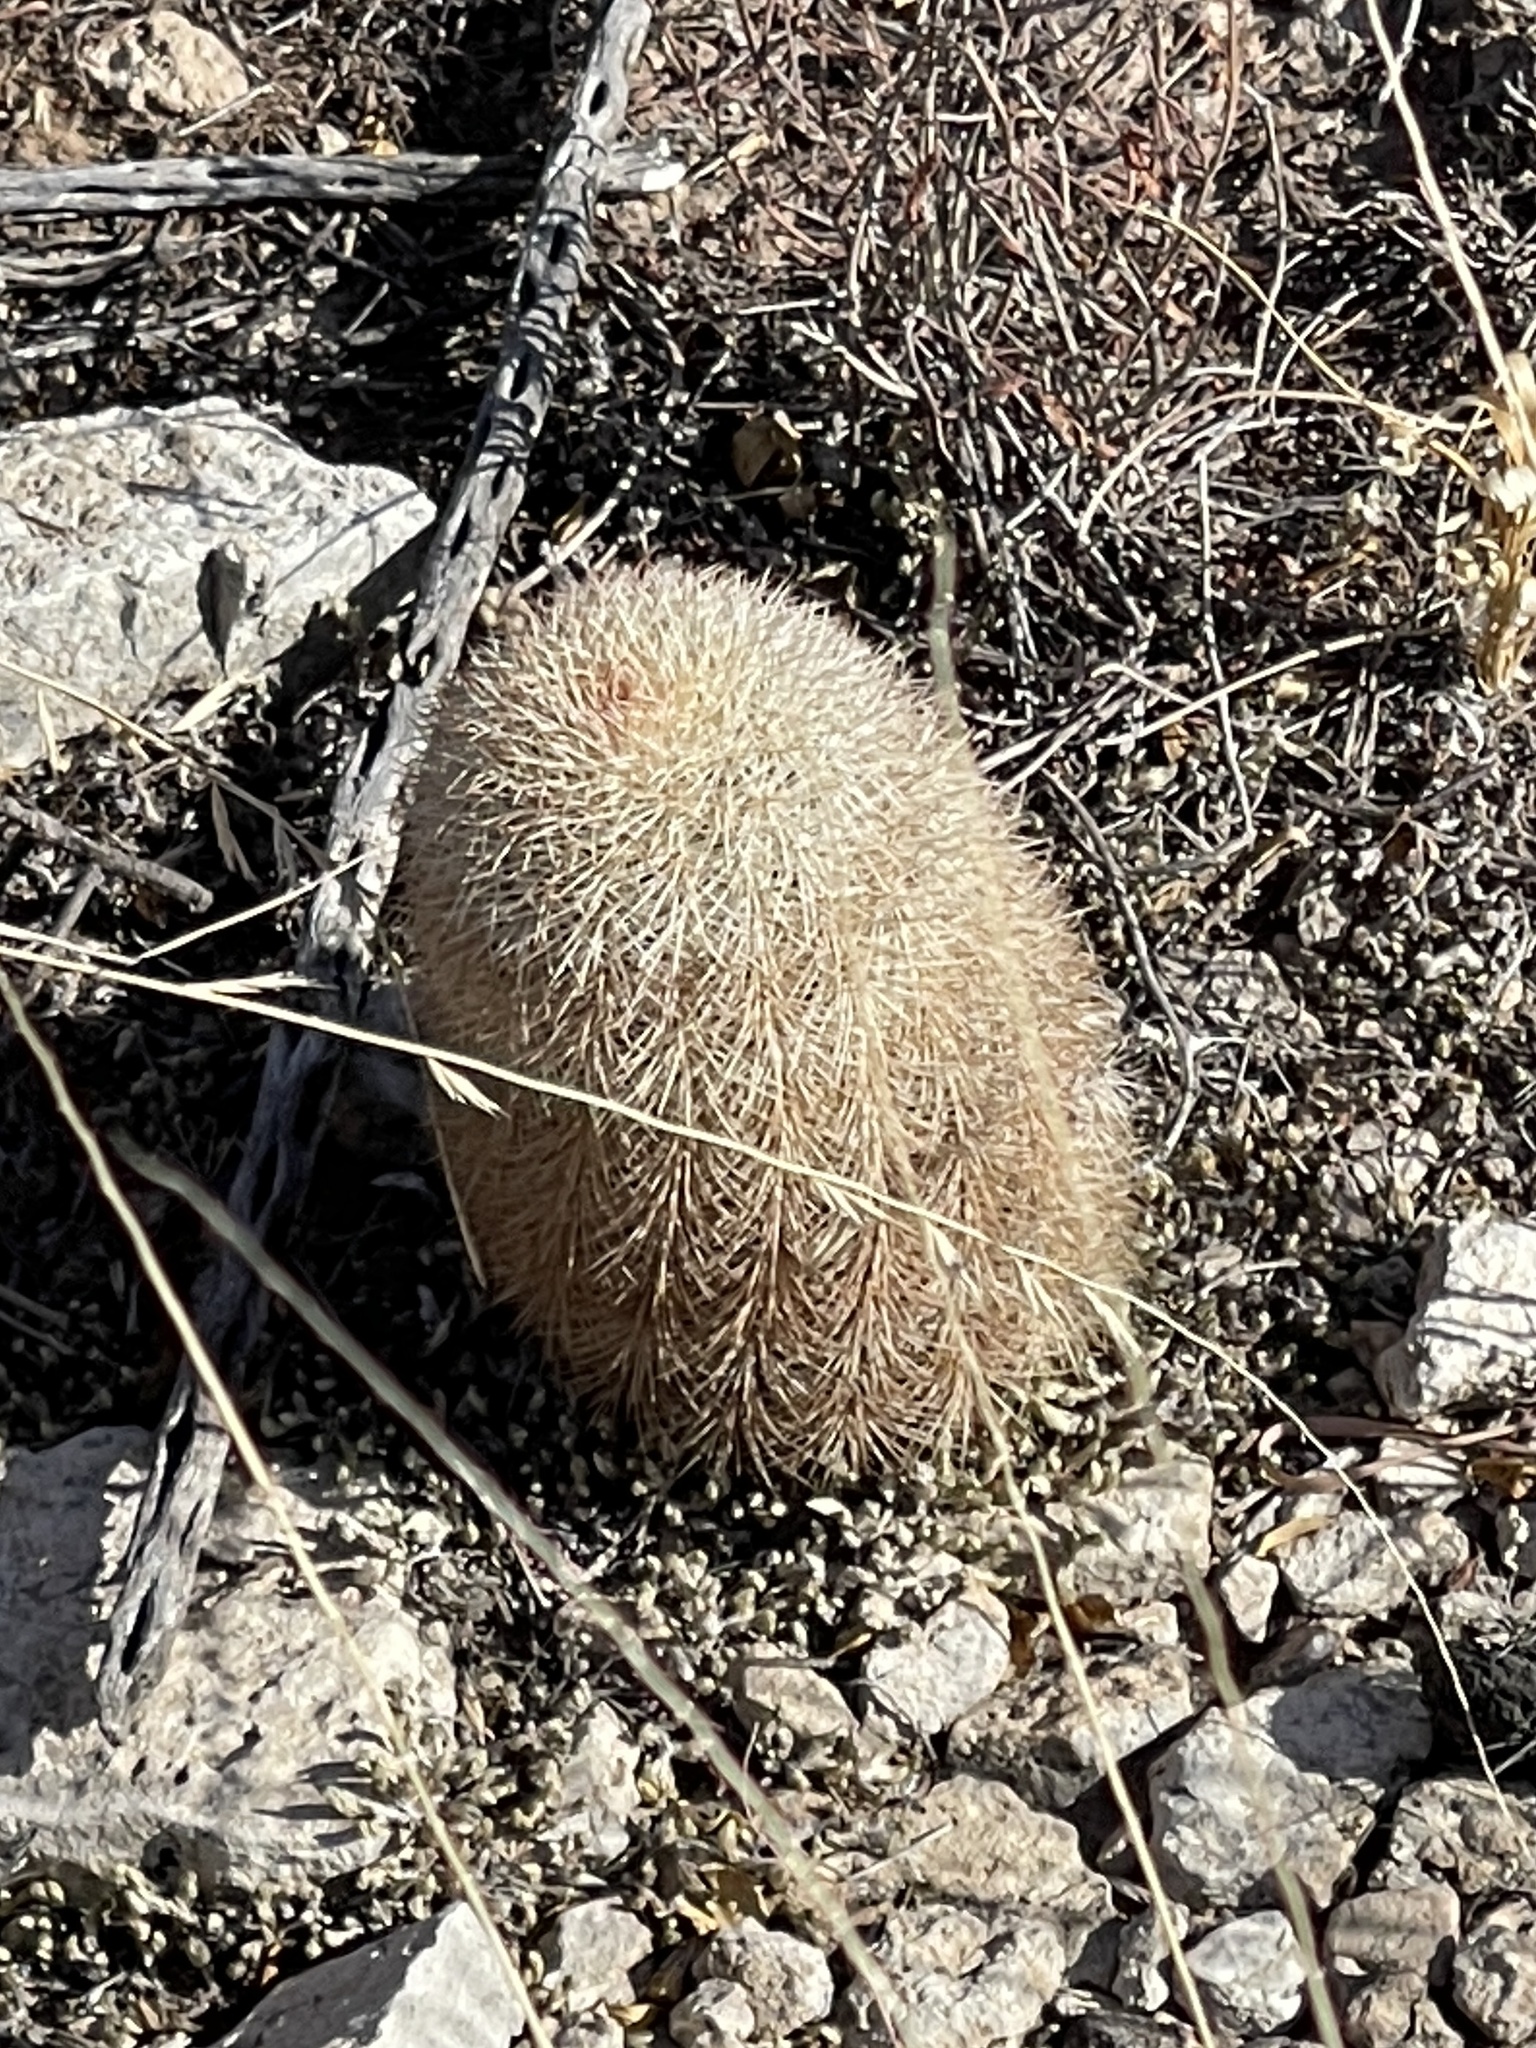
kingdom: Plantae
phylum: Tracheophyta
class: Magnoliopsida
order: Caryophyllales
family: Cactaceae
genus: Echinocereus
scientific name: Echinocereus dasyacanthus
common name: Spiny hedgehog cactus
